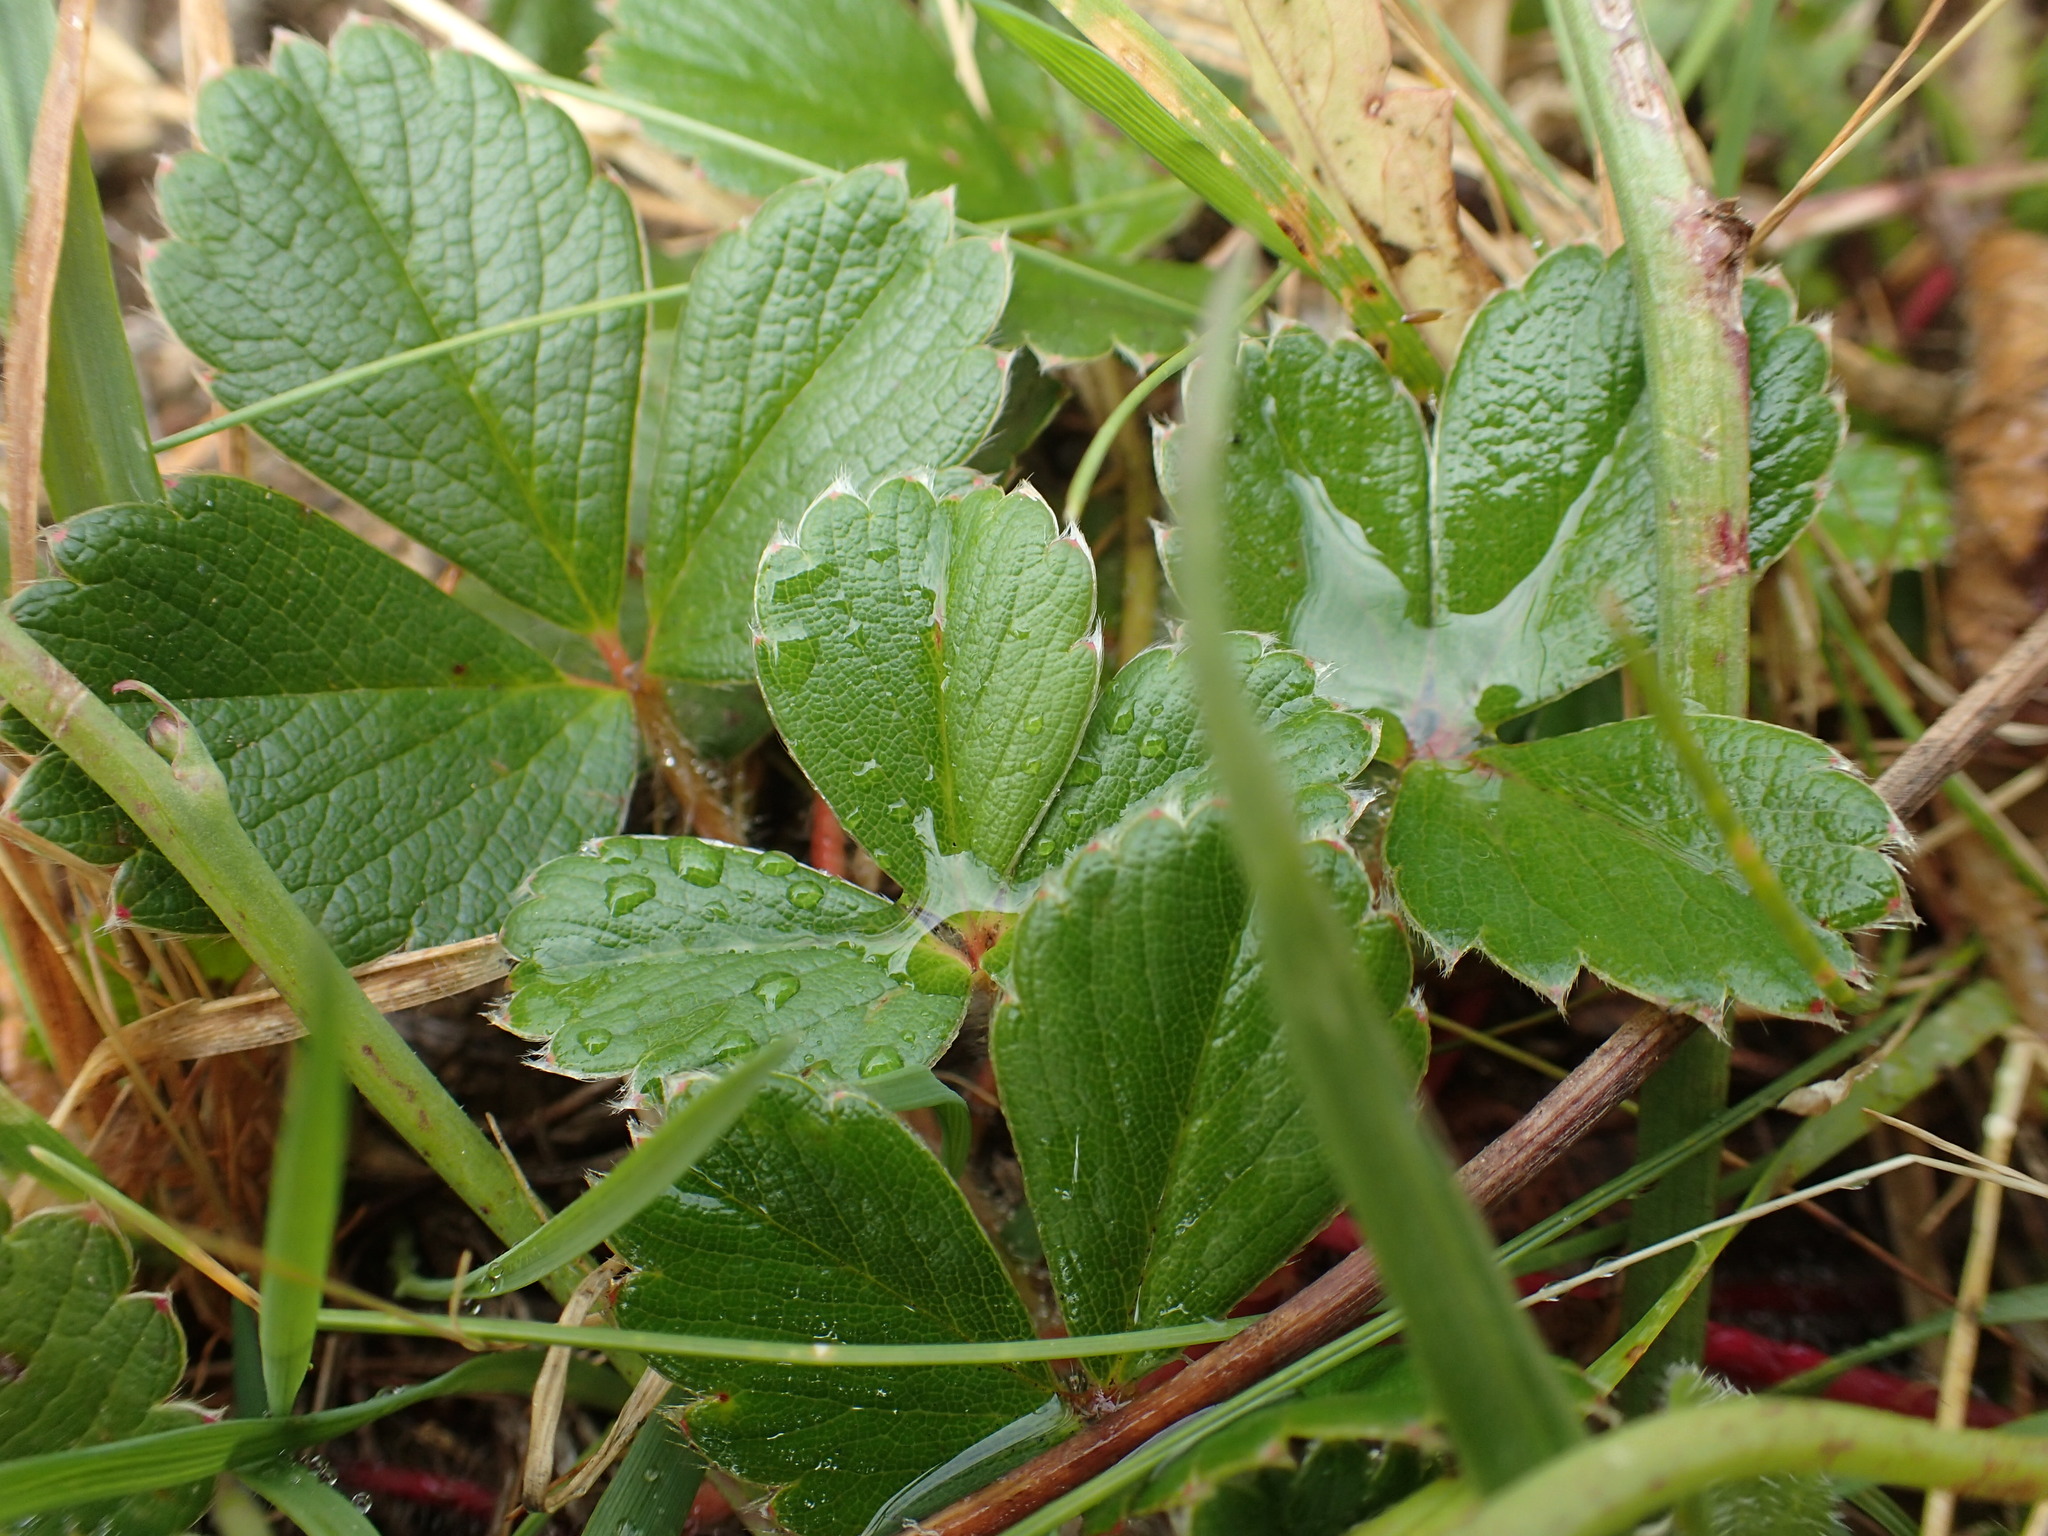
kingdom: Plantae
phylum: Tracheophyta
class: Magnoliopsida
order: Rosales
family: Rosaceae
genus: Fragaria
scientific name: Fragaria chiloensis
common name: Beach strawberry
